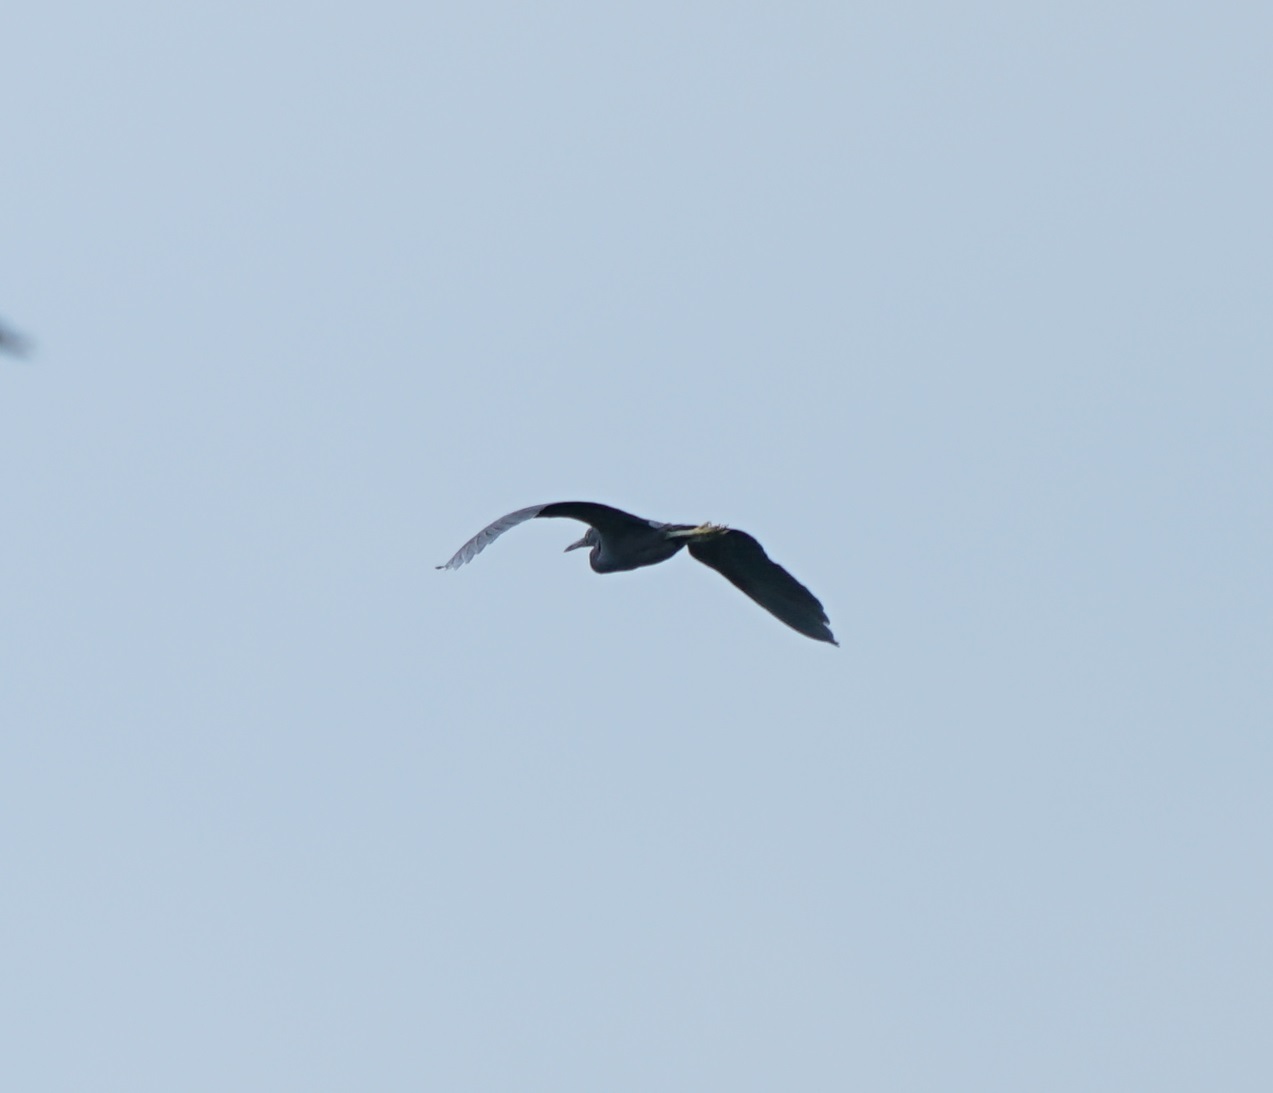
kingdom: Animalia
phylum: Chordata
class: Aves
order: Pelecaniformes
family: Ardeidae
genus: Egretta
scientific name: Egretta sacra
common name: Pacific reef heron
